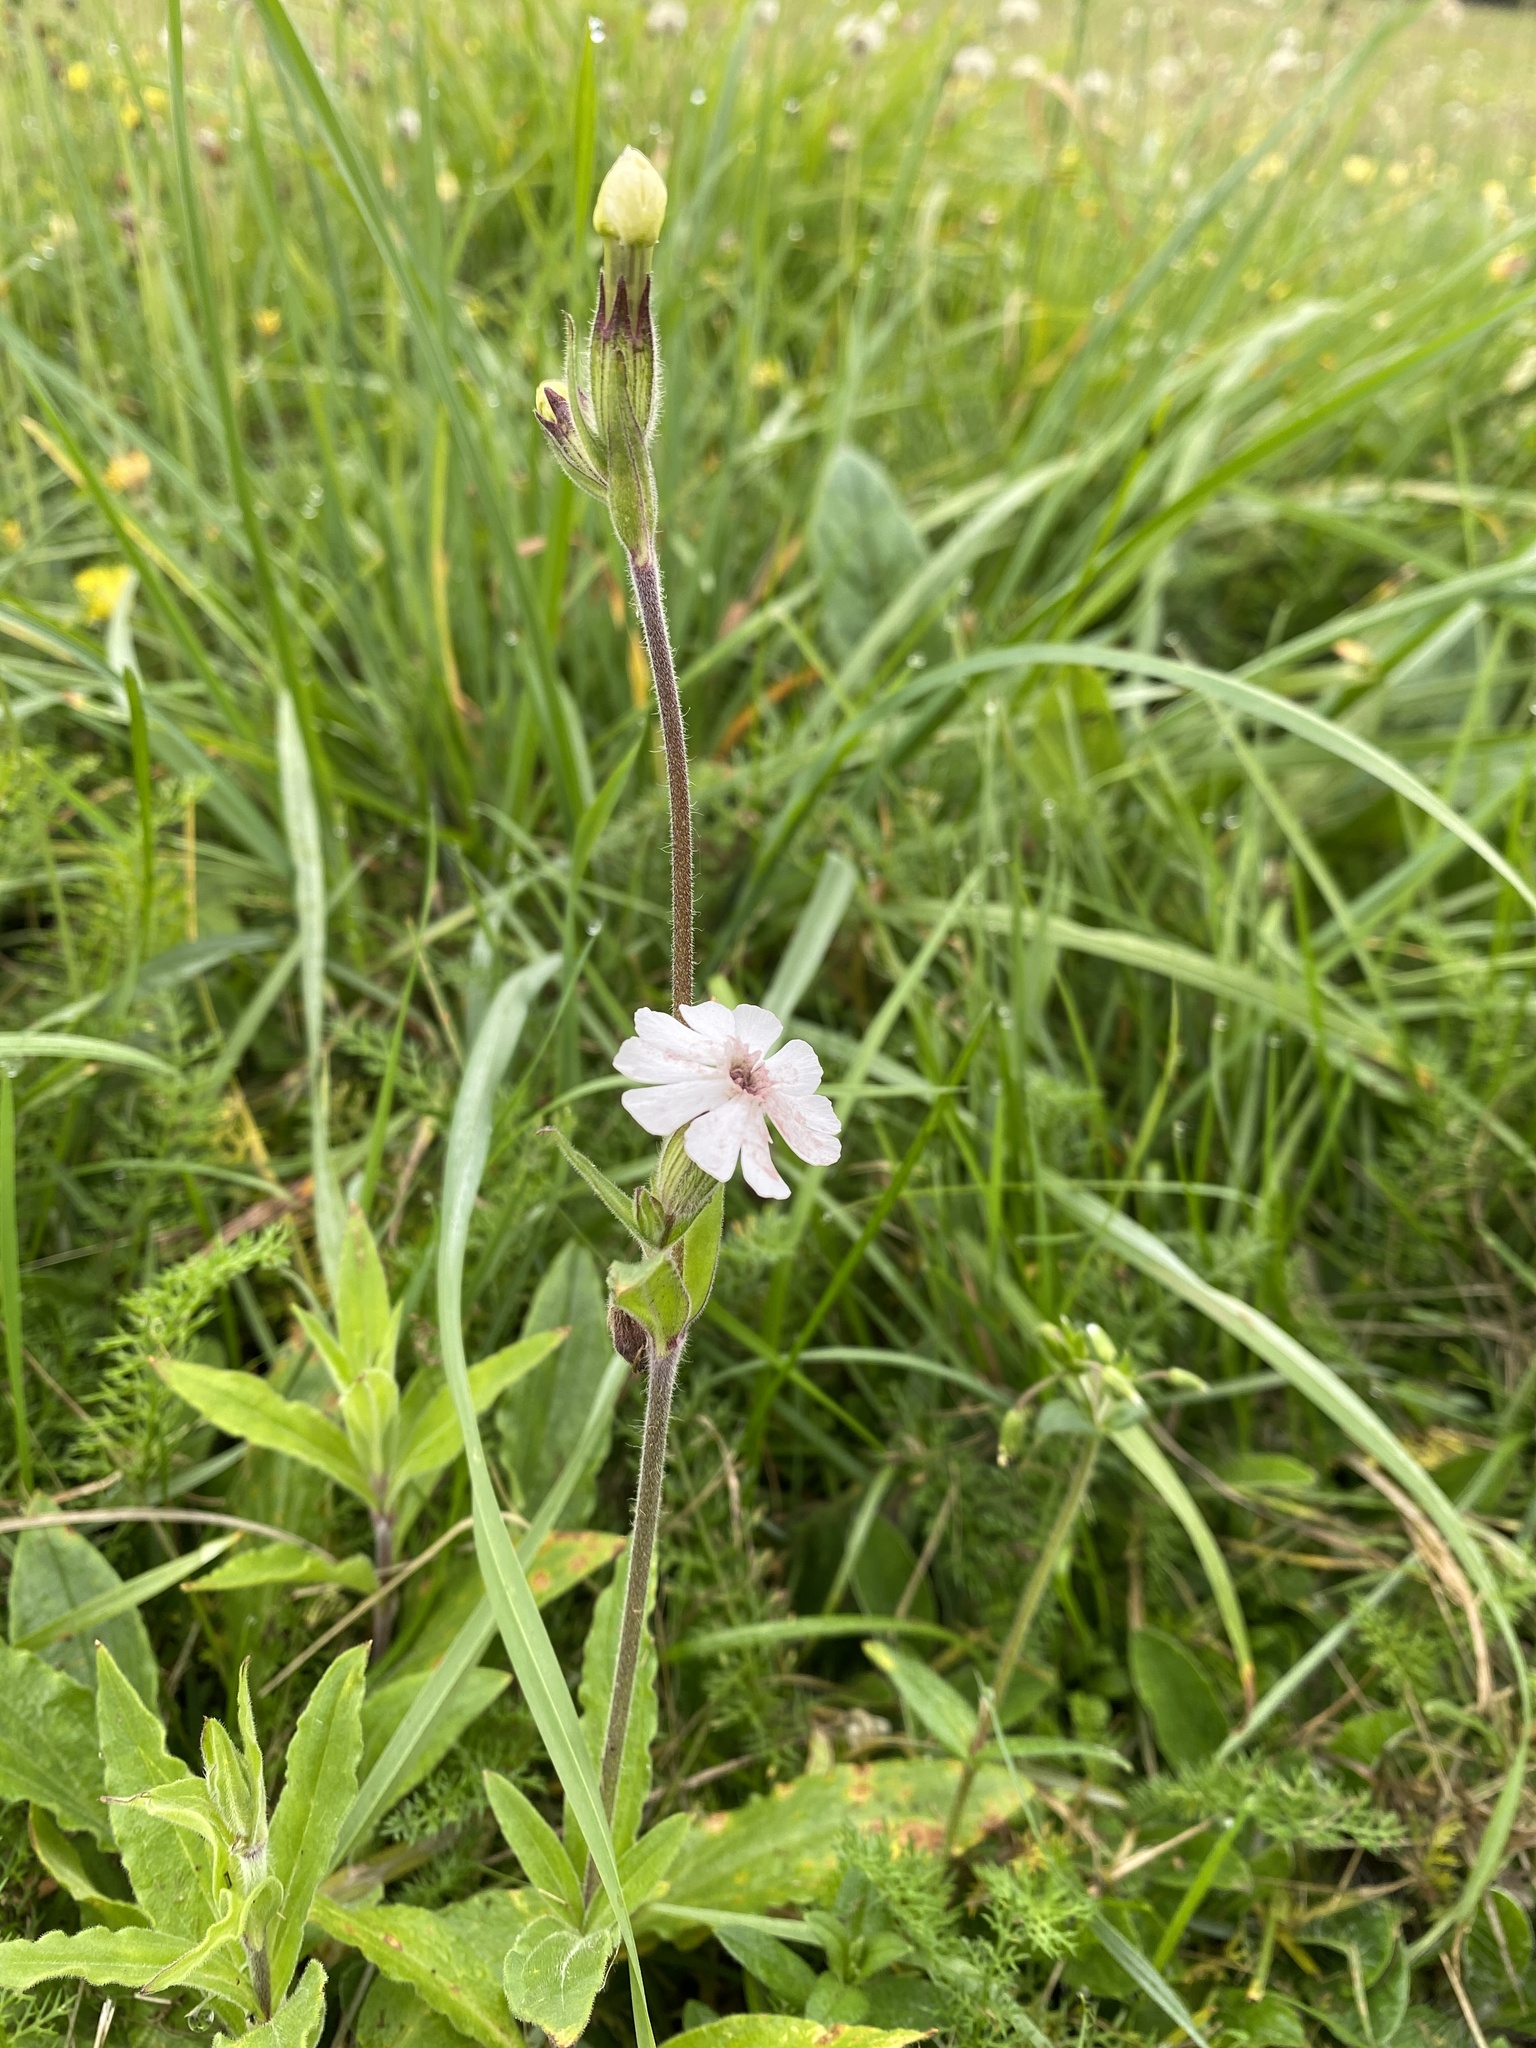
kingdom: Fungi
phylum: Basidiomycota
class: Microbotryomycetes
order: Microbotryales
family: Microbotryaceae
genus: Microbotryum
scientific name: Microbotryum lychnidis-dioicae
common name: Campion anther smut
